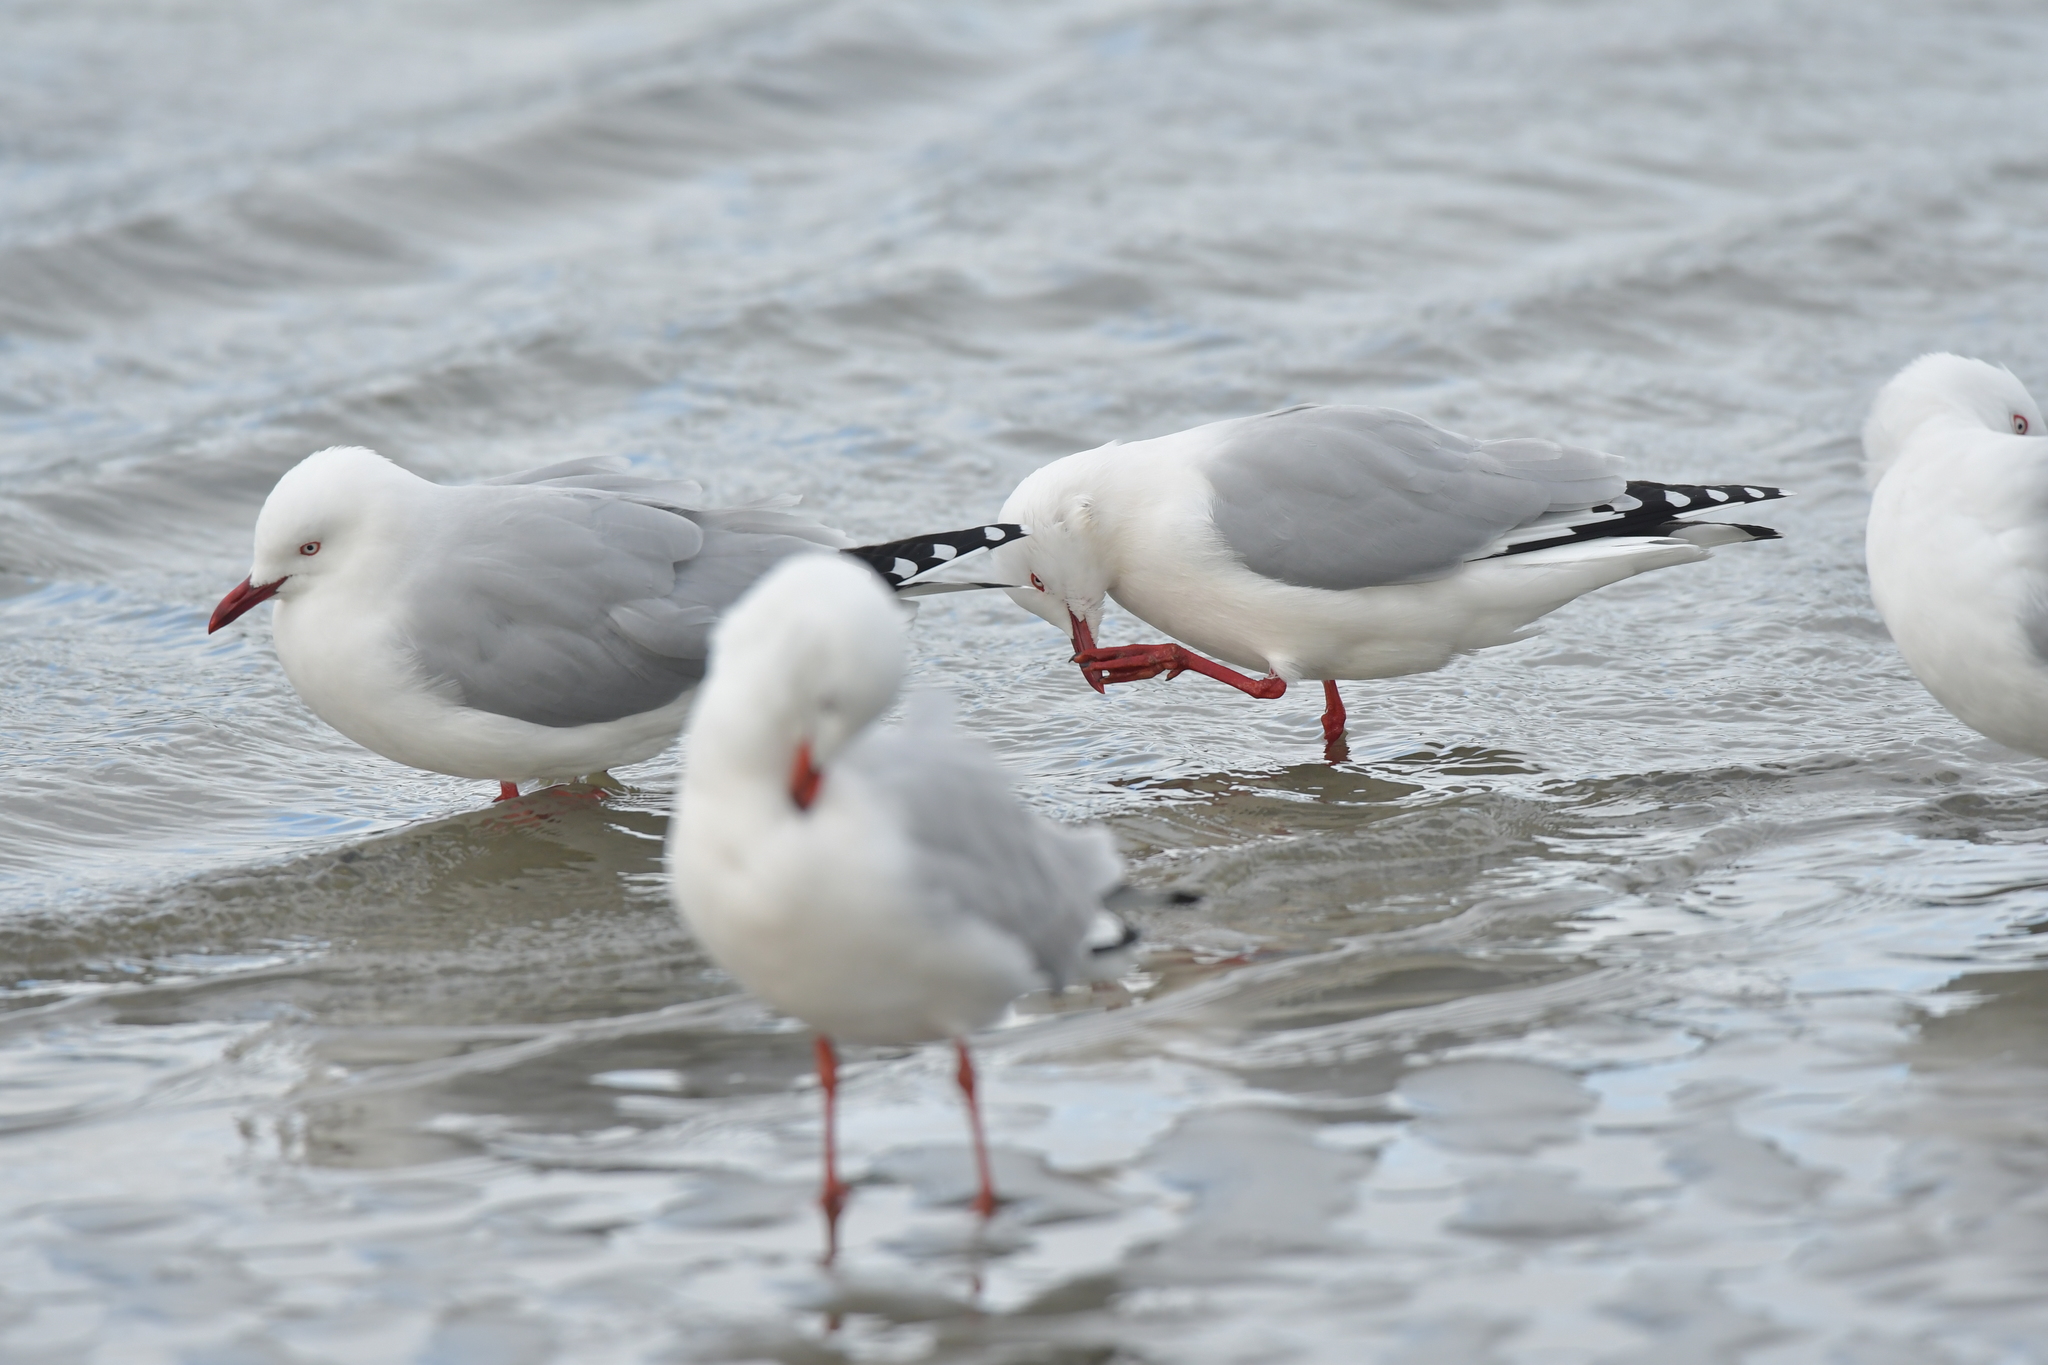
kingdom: Animalia
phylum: Chordata
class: Aves
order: Charadriiformes
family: Laridae
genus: Chroicocephalus
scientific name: Chroicocephalus novaehollandiae
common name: Silver gull
